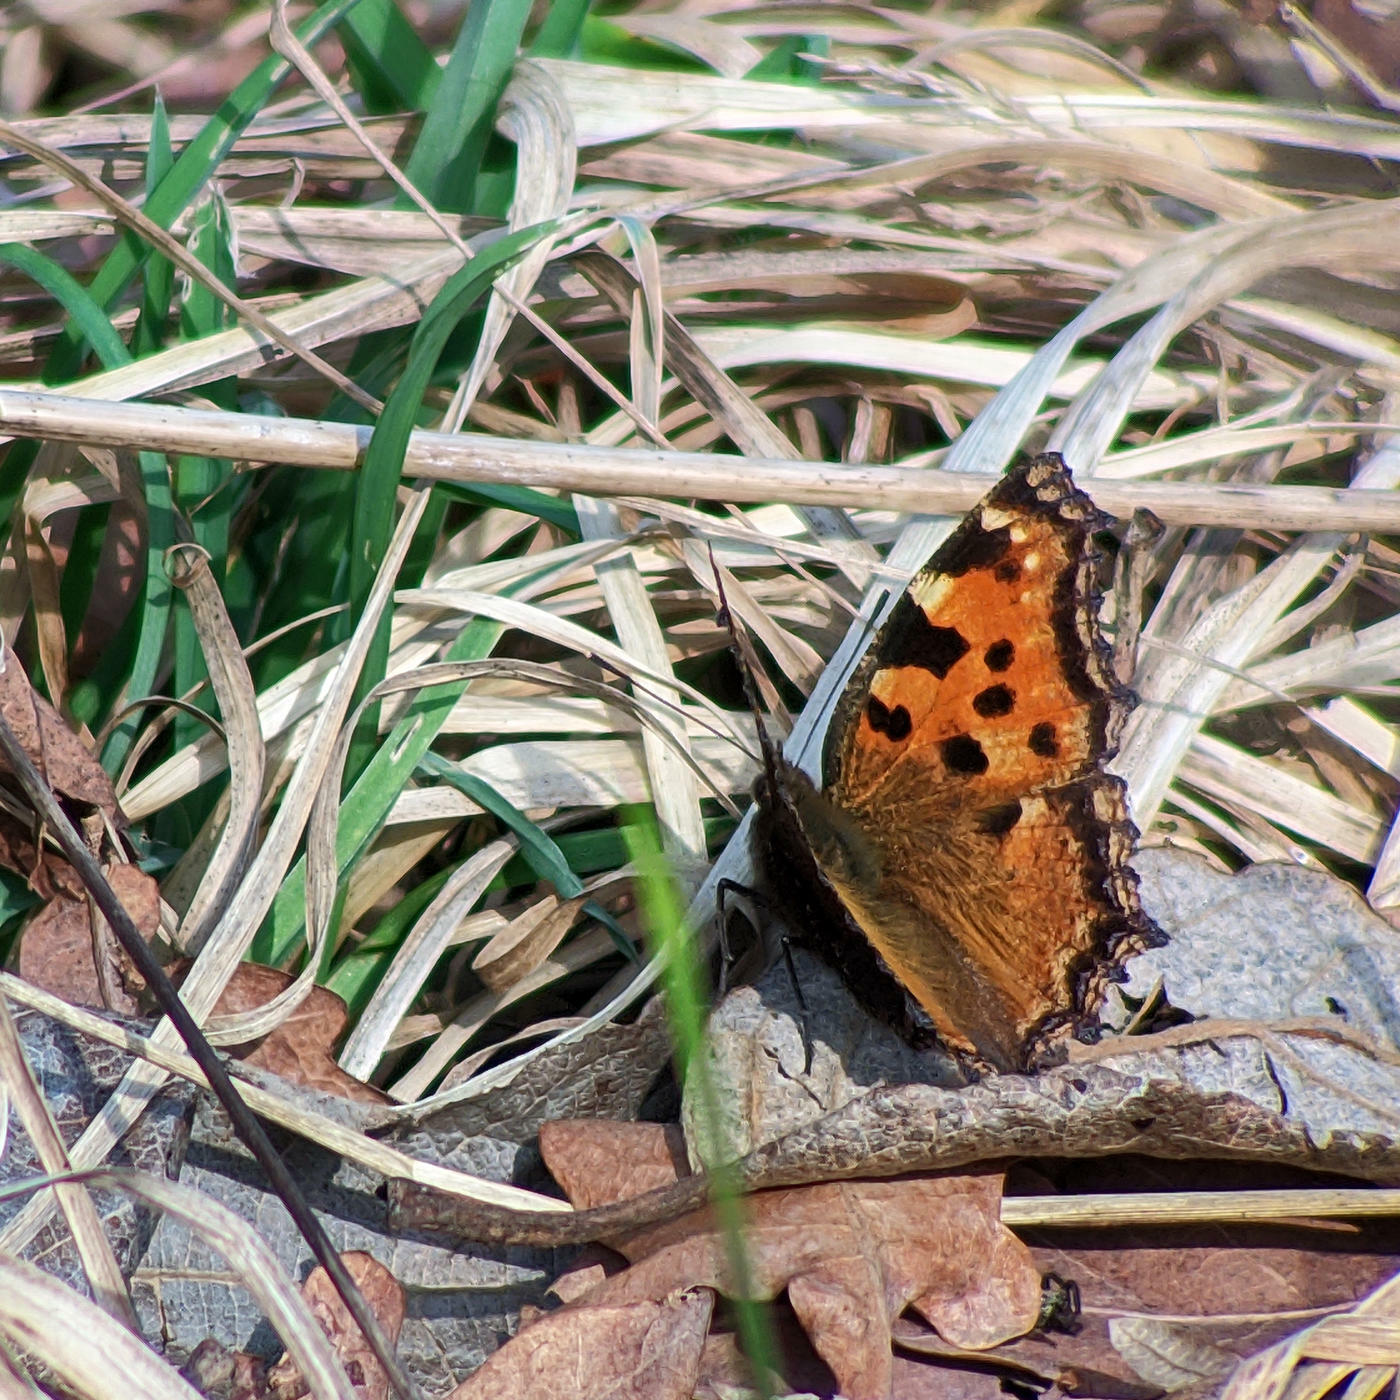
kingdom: Animalia
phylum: Arthropoda
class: Insecta
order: Lepidoptera
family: Nymphalidae
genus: Nymphalis
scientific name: Nymphalis polychloros
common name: Large tortoiseshell
